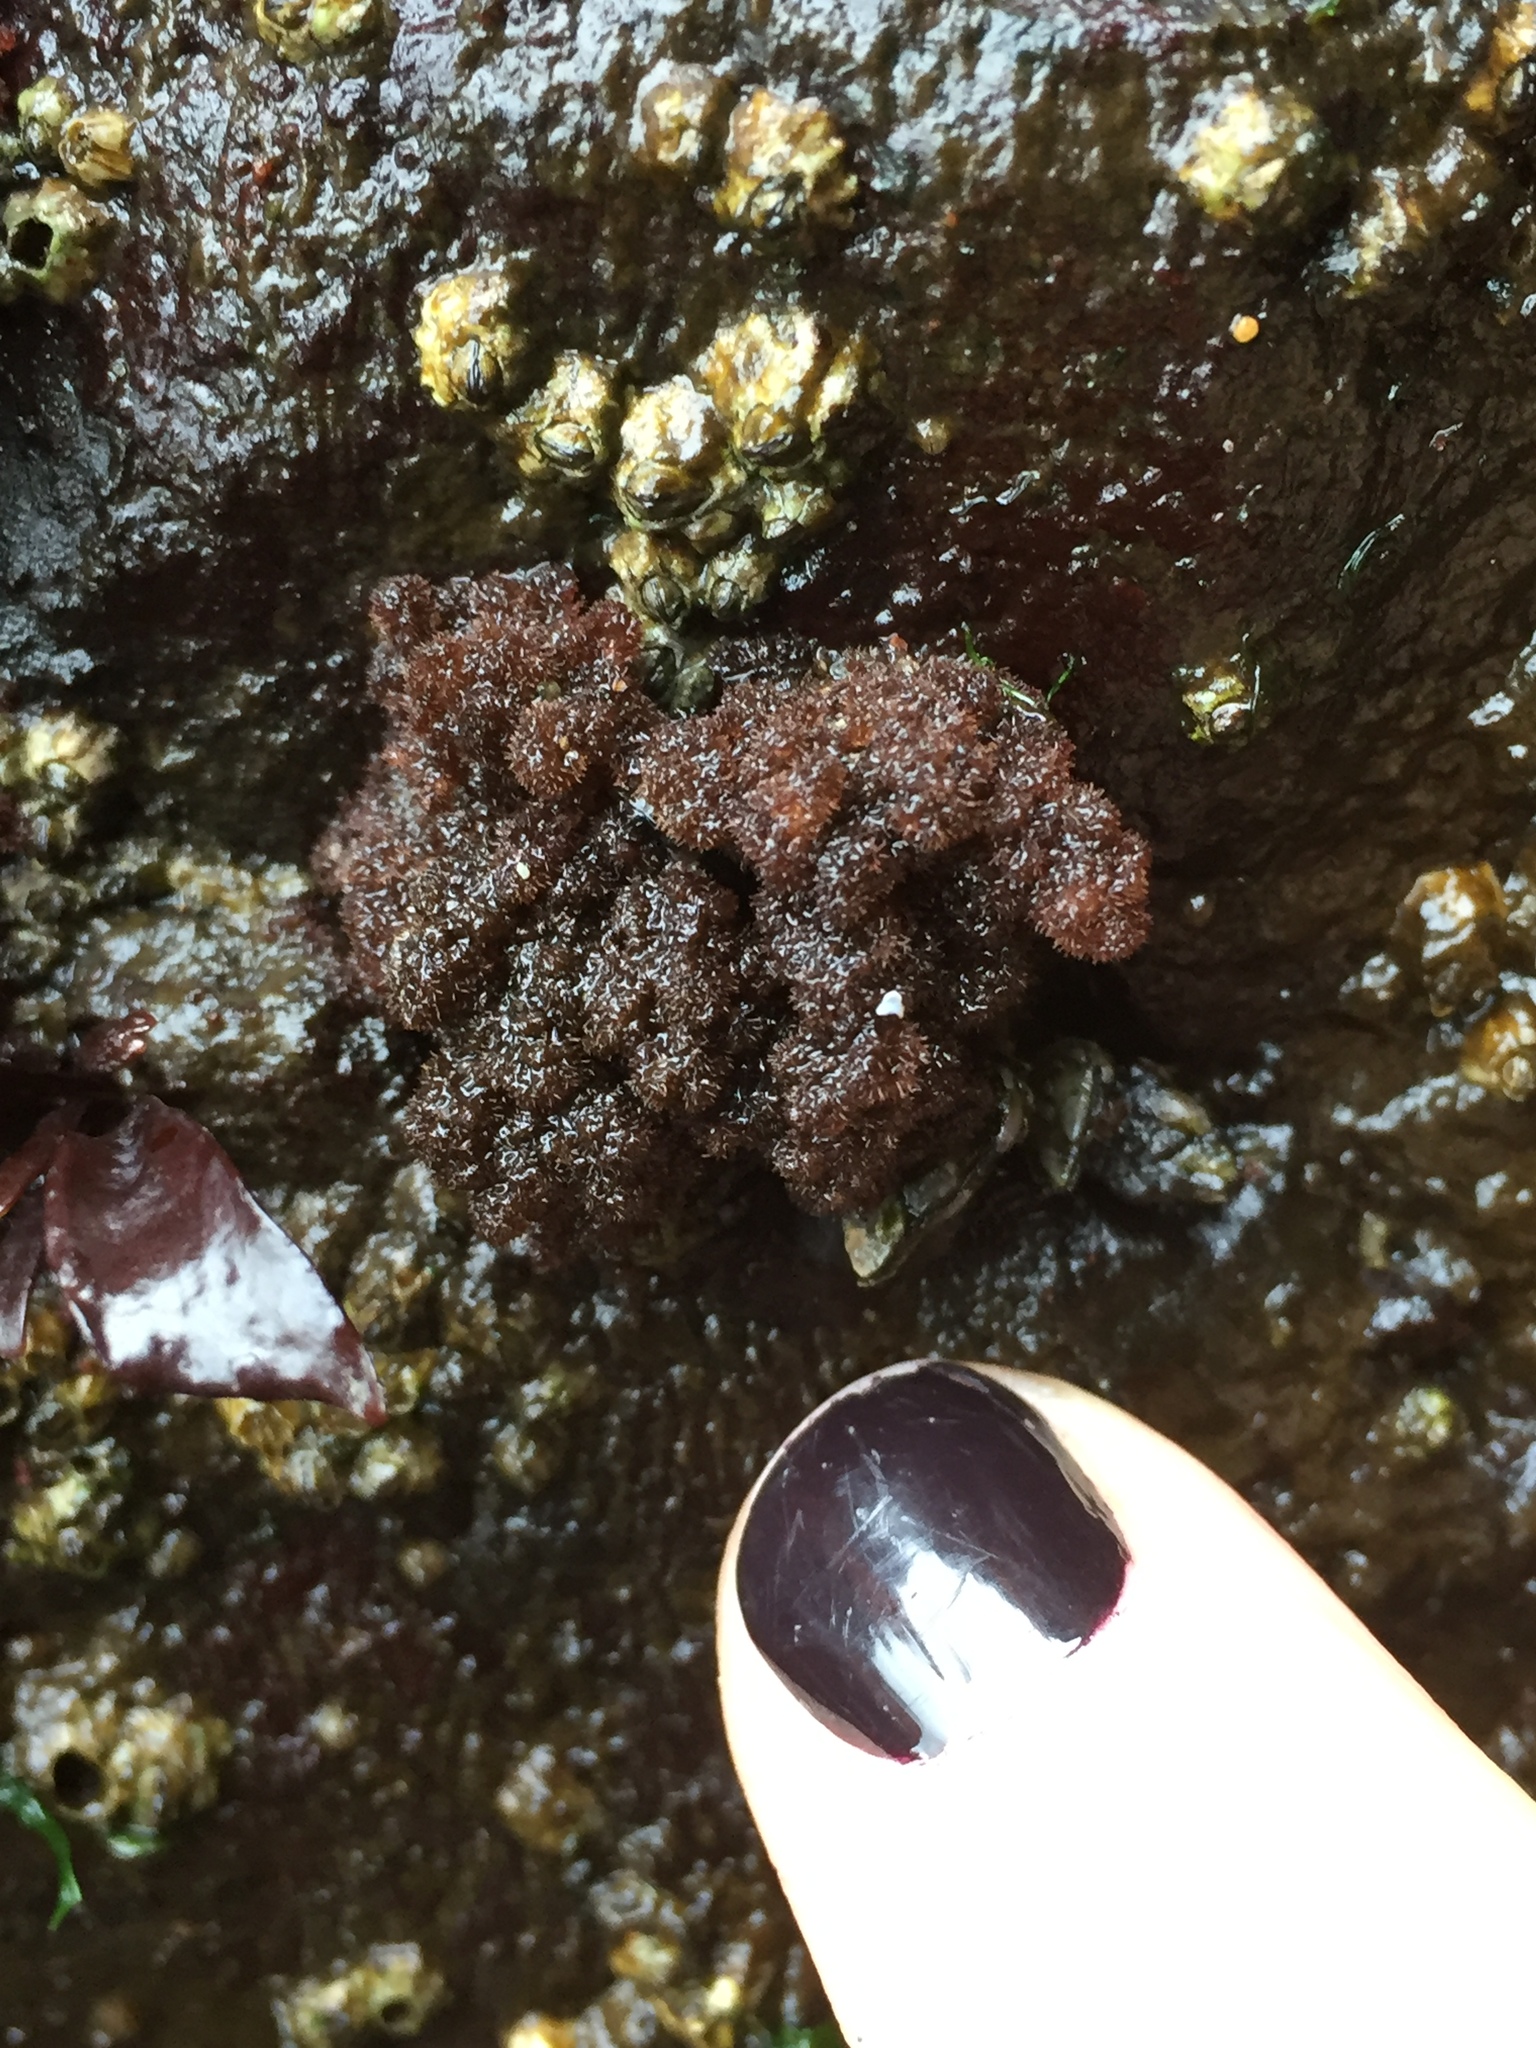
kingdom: Plantae
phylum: Rhodophyta
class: Florideophyceae
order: Ceramiales
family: Callithamniaceae
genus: Callithamnion
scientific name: Callithamnion pikeanum
